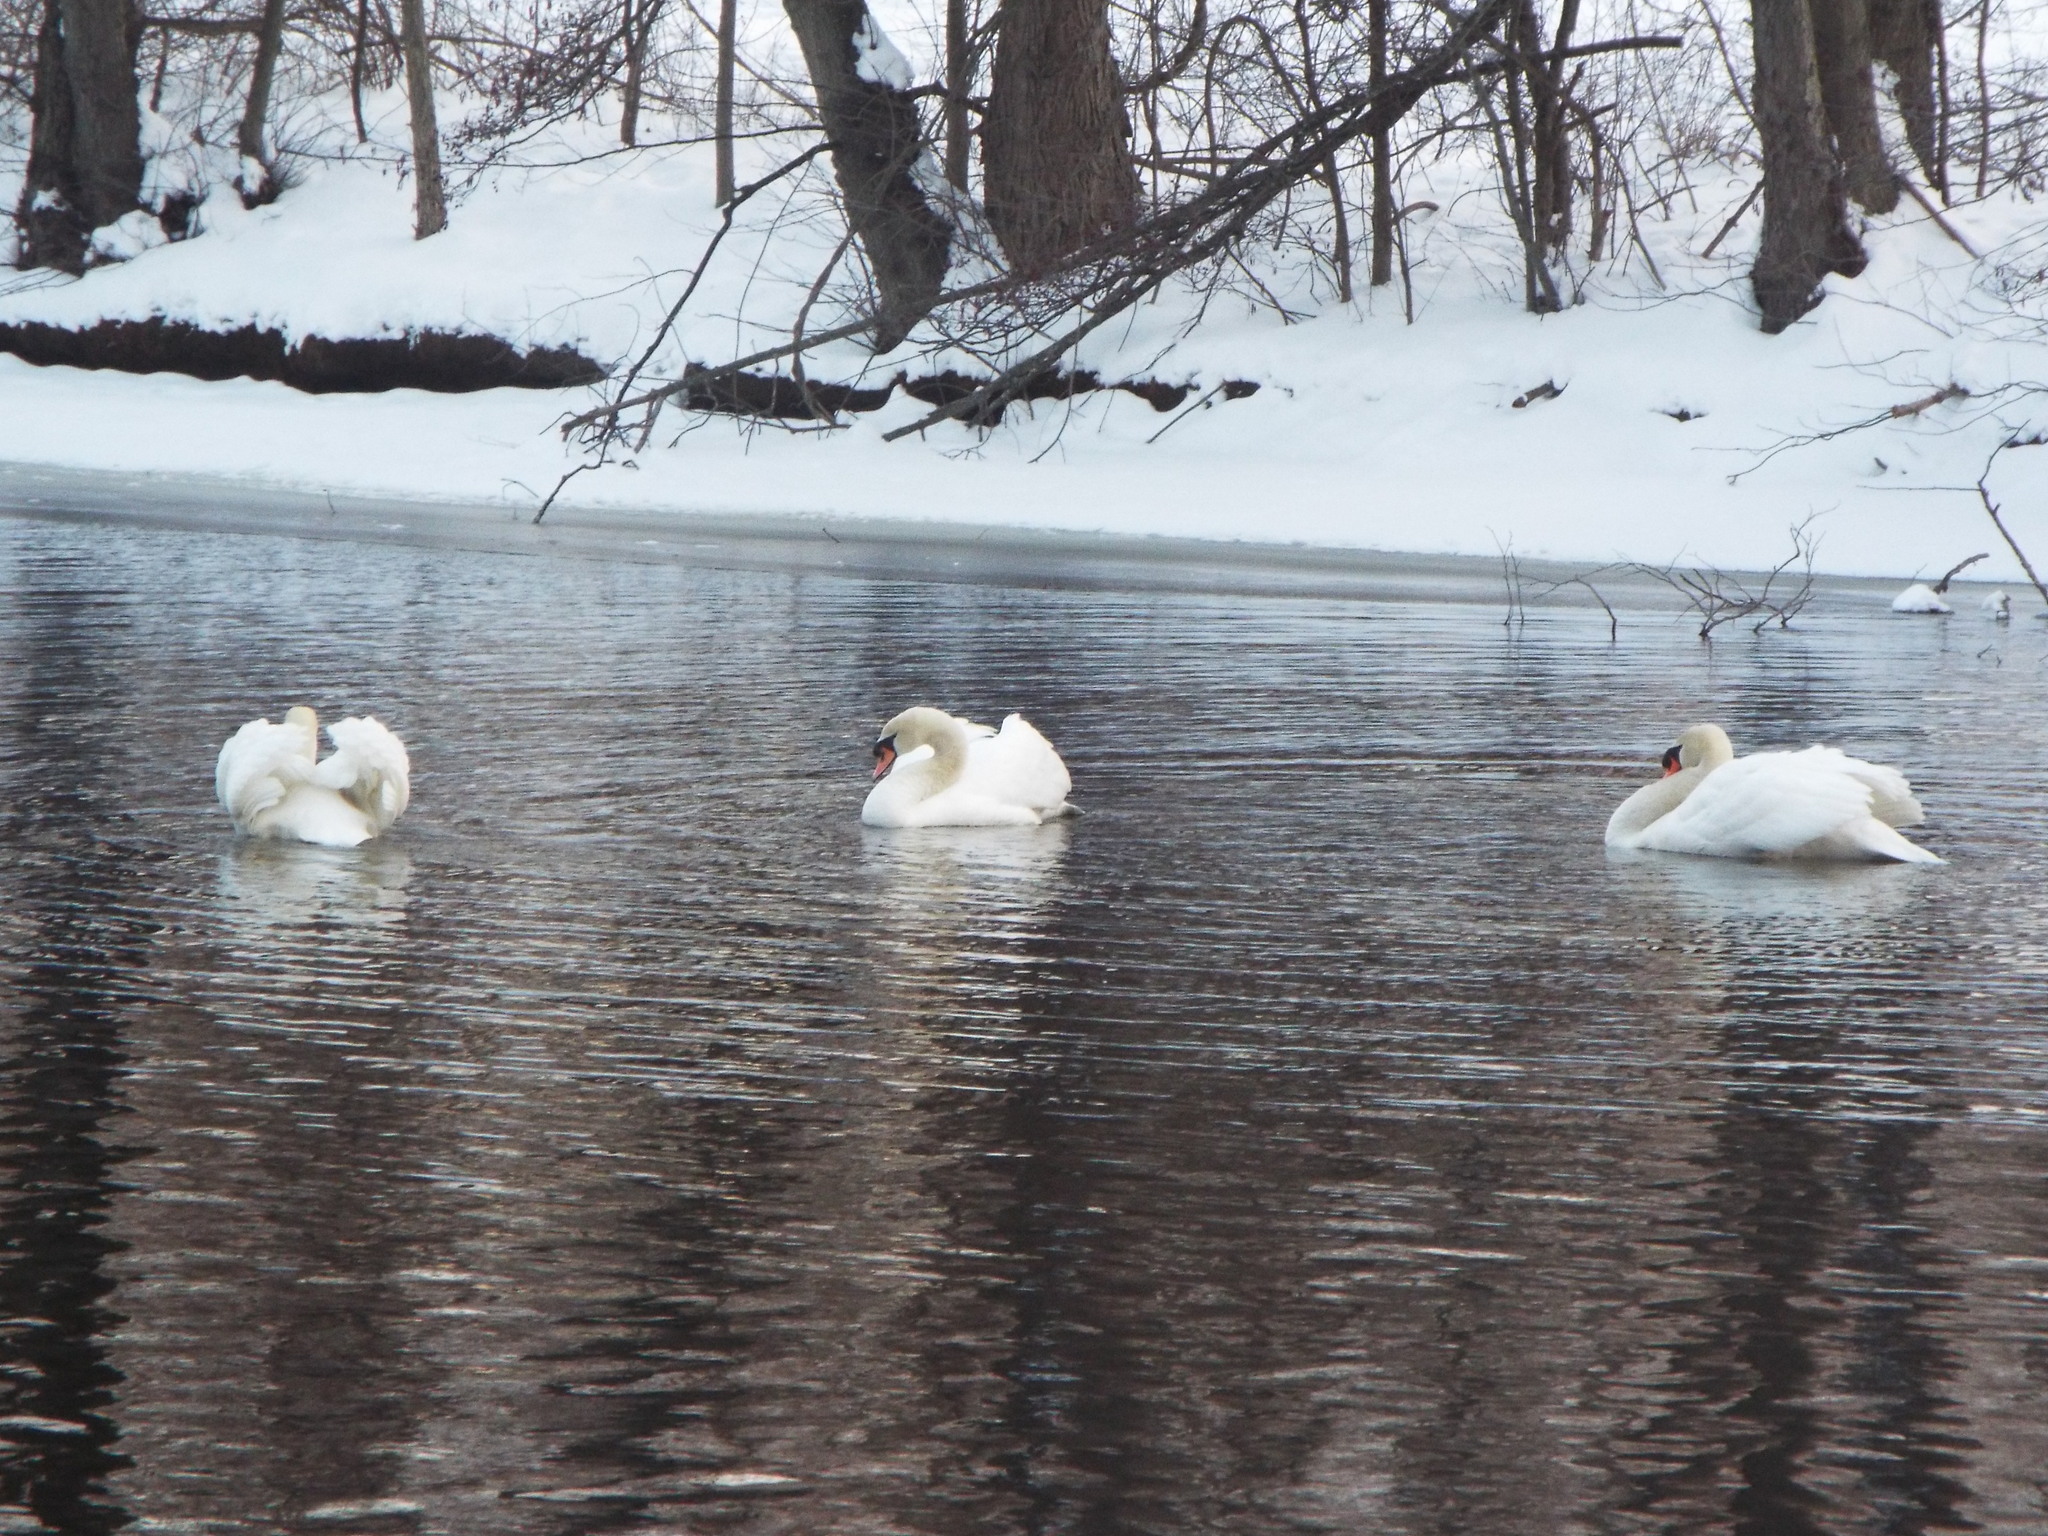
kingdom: Animalia
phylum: Chordata
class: Aves
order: Anseriformes
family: Anatidae
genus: Cygnus
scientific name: Cygnus olor
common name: Mute swan
